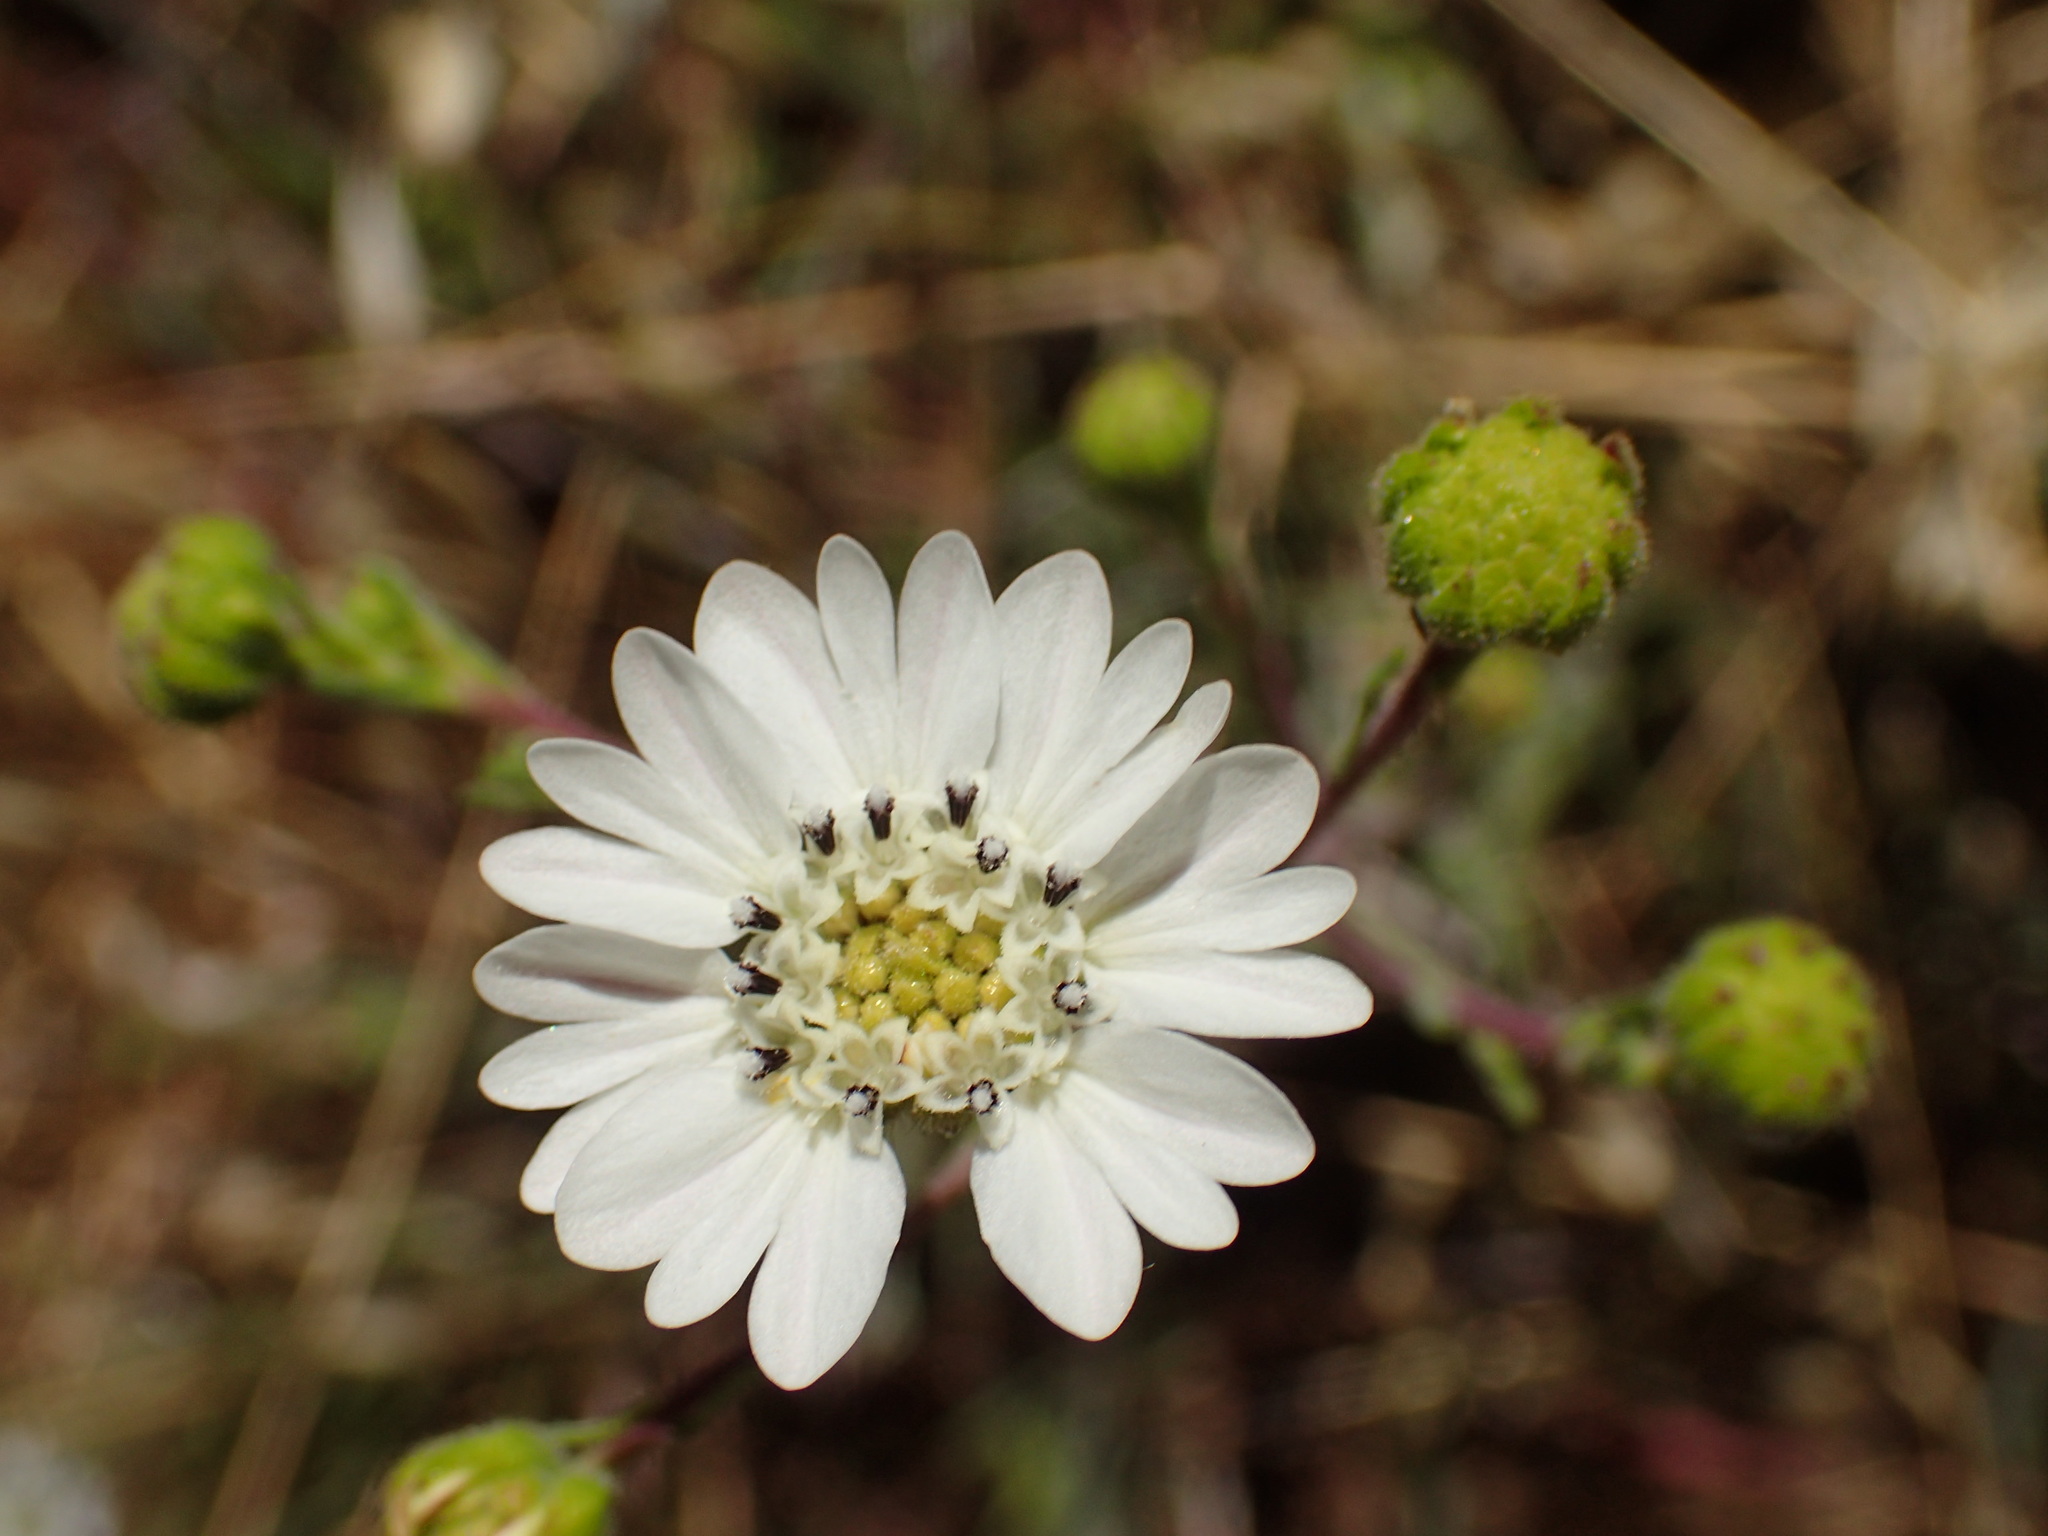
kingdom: Plantae
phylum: Tracheophyta
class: Magnoliopsida
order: Asterales
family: Asteraceae
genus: Hemizonia
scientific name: Hemizonia congesta
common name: Hayfield tarweed
